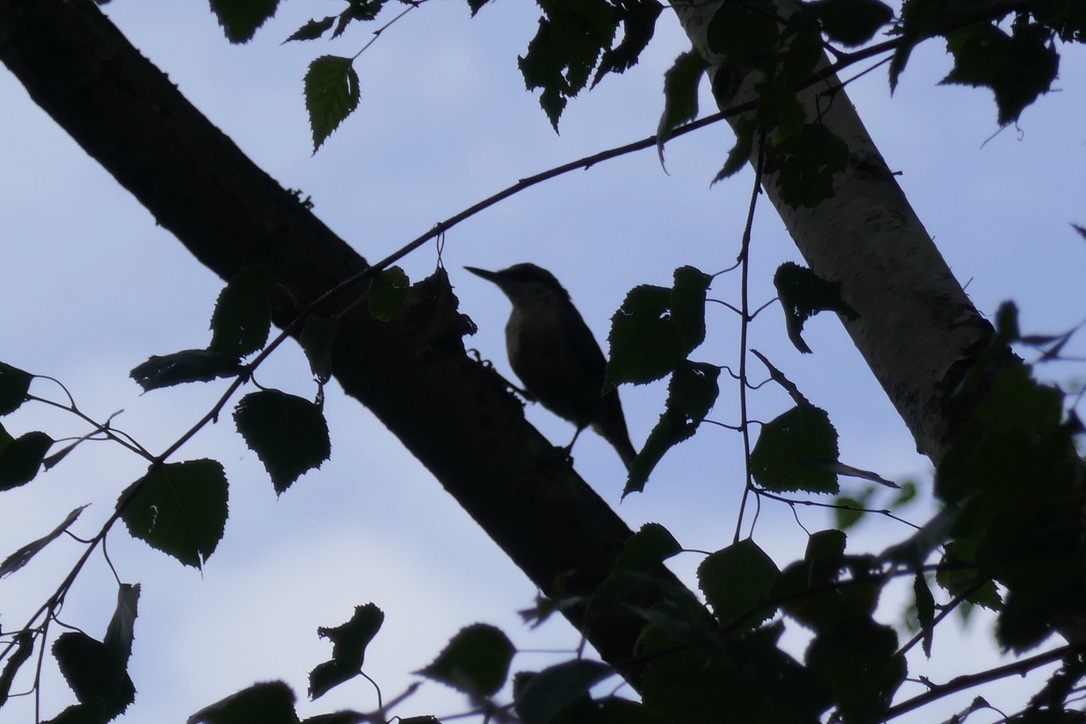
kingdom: Animalia
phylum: Chordata
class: Aves
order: Passeriformes
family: Sittidae
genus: Sitta
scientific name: Sitta europaea
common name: Eurasian nuthatch
